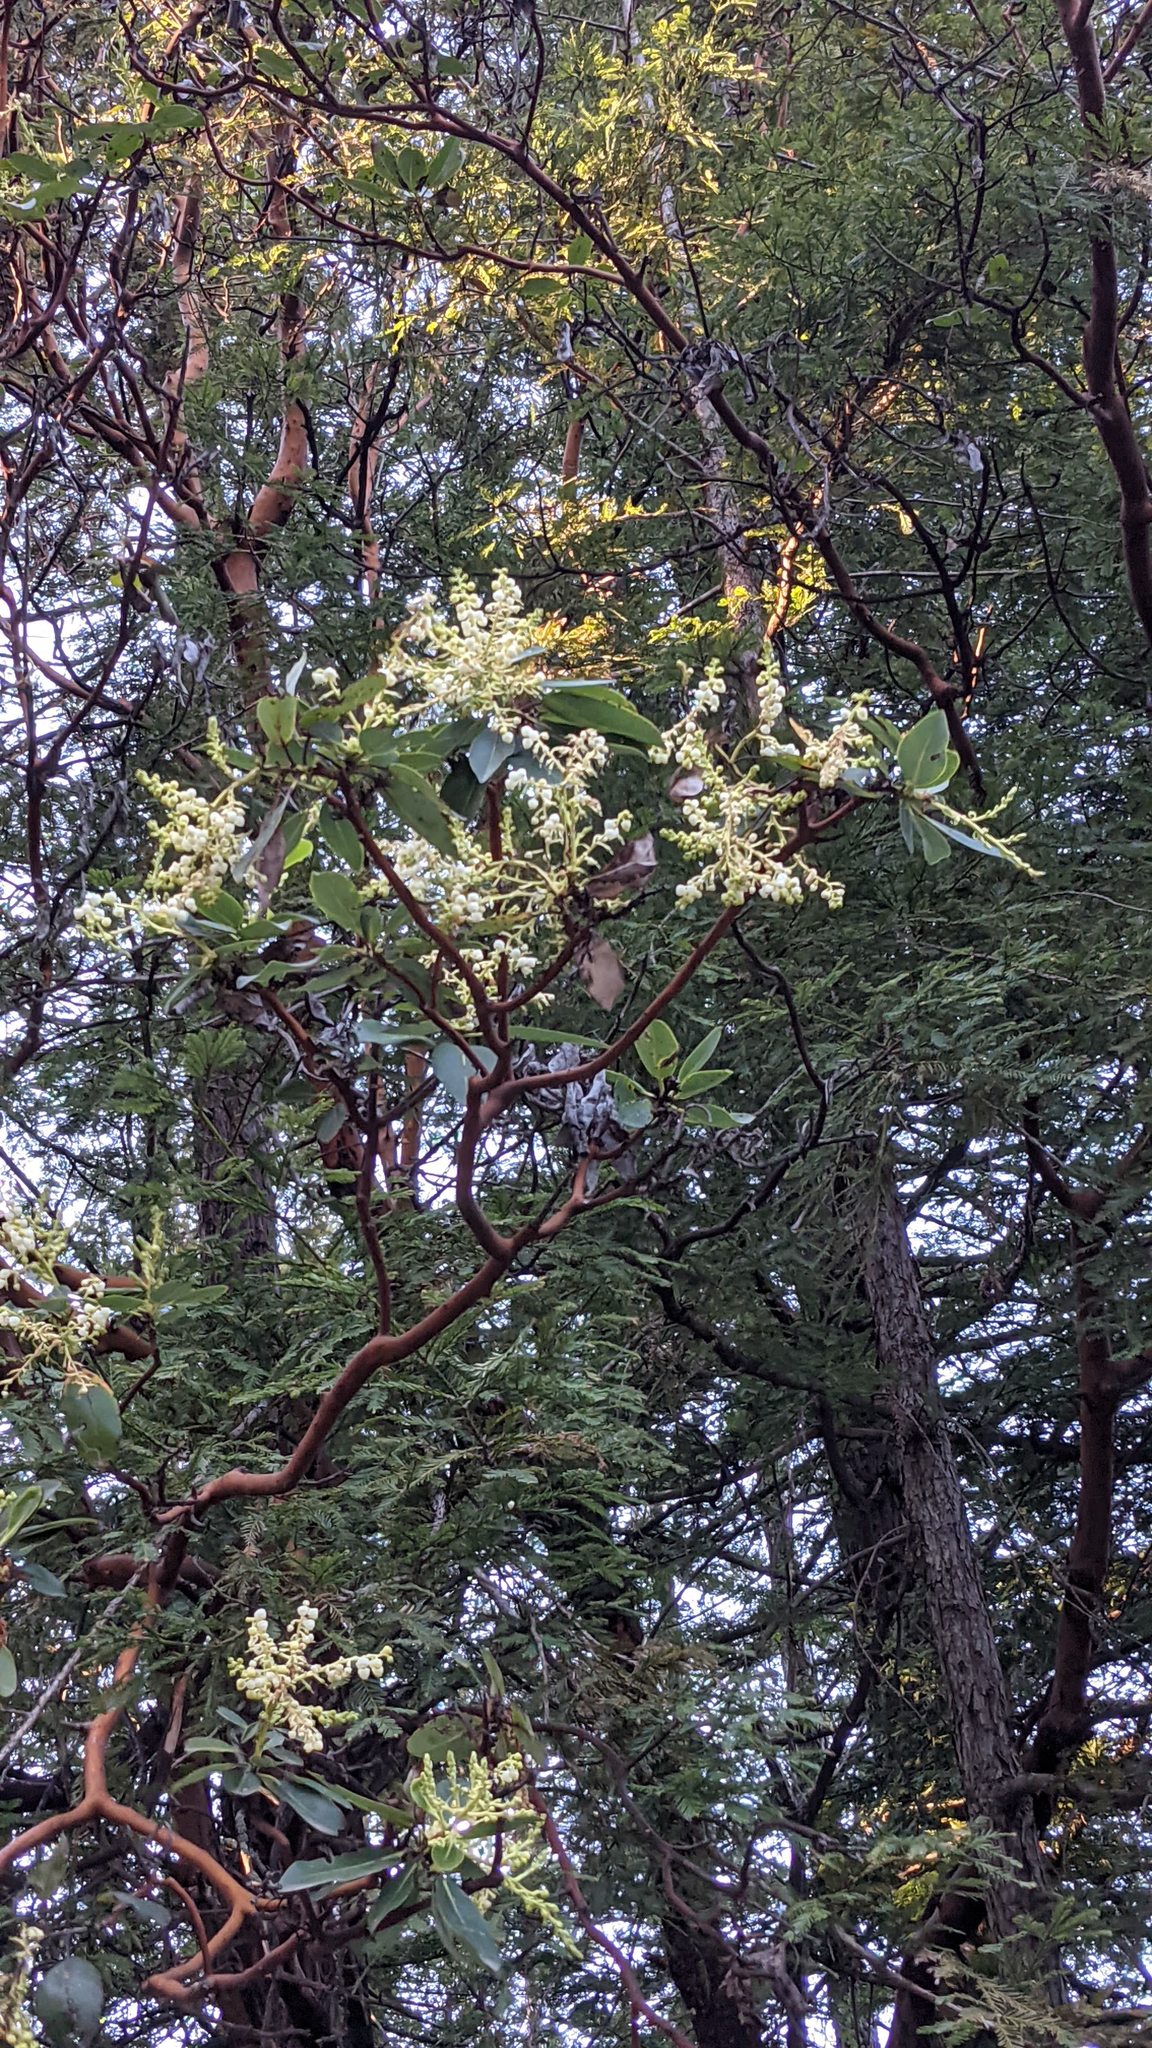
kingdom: Plantae
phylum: Tracheophyta
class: Magnoliopsida
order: Ericales
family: Ericaceae
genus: Arbutus
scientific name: Arbutus menziesii
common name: Pacific madrone
